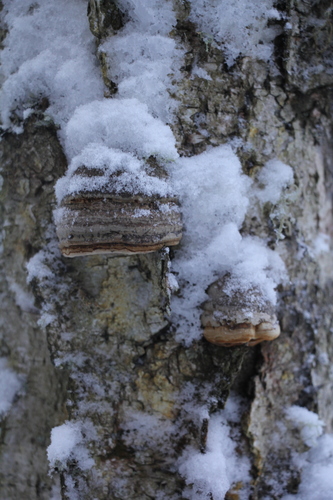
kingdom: Fungi
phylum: Basidiomycota
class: Agaricomycetes
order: Polyporales
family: Polyporaceae
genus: Fomes
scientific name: Fomes fomentarius
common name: Hoof fungus
